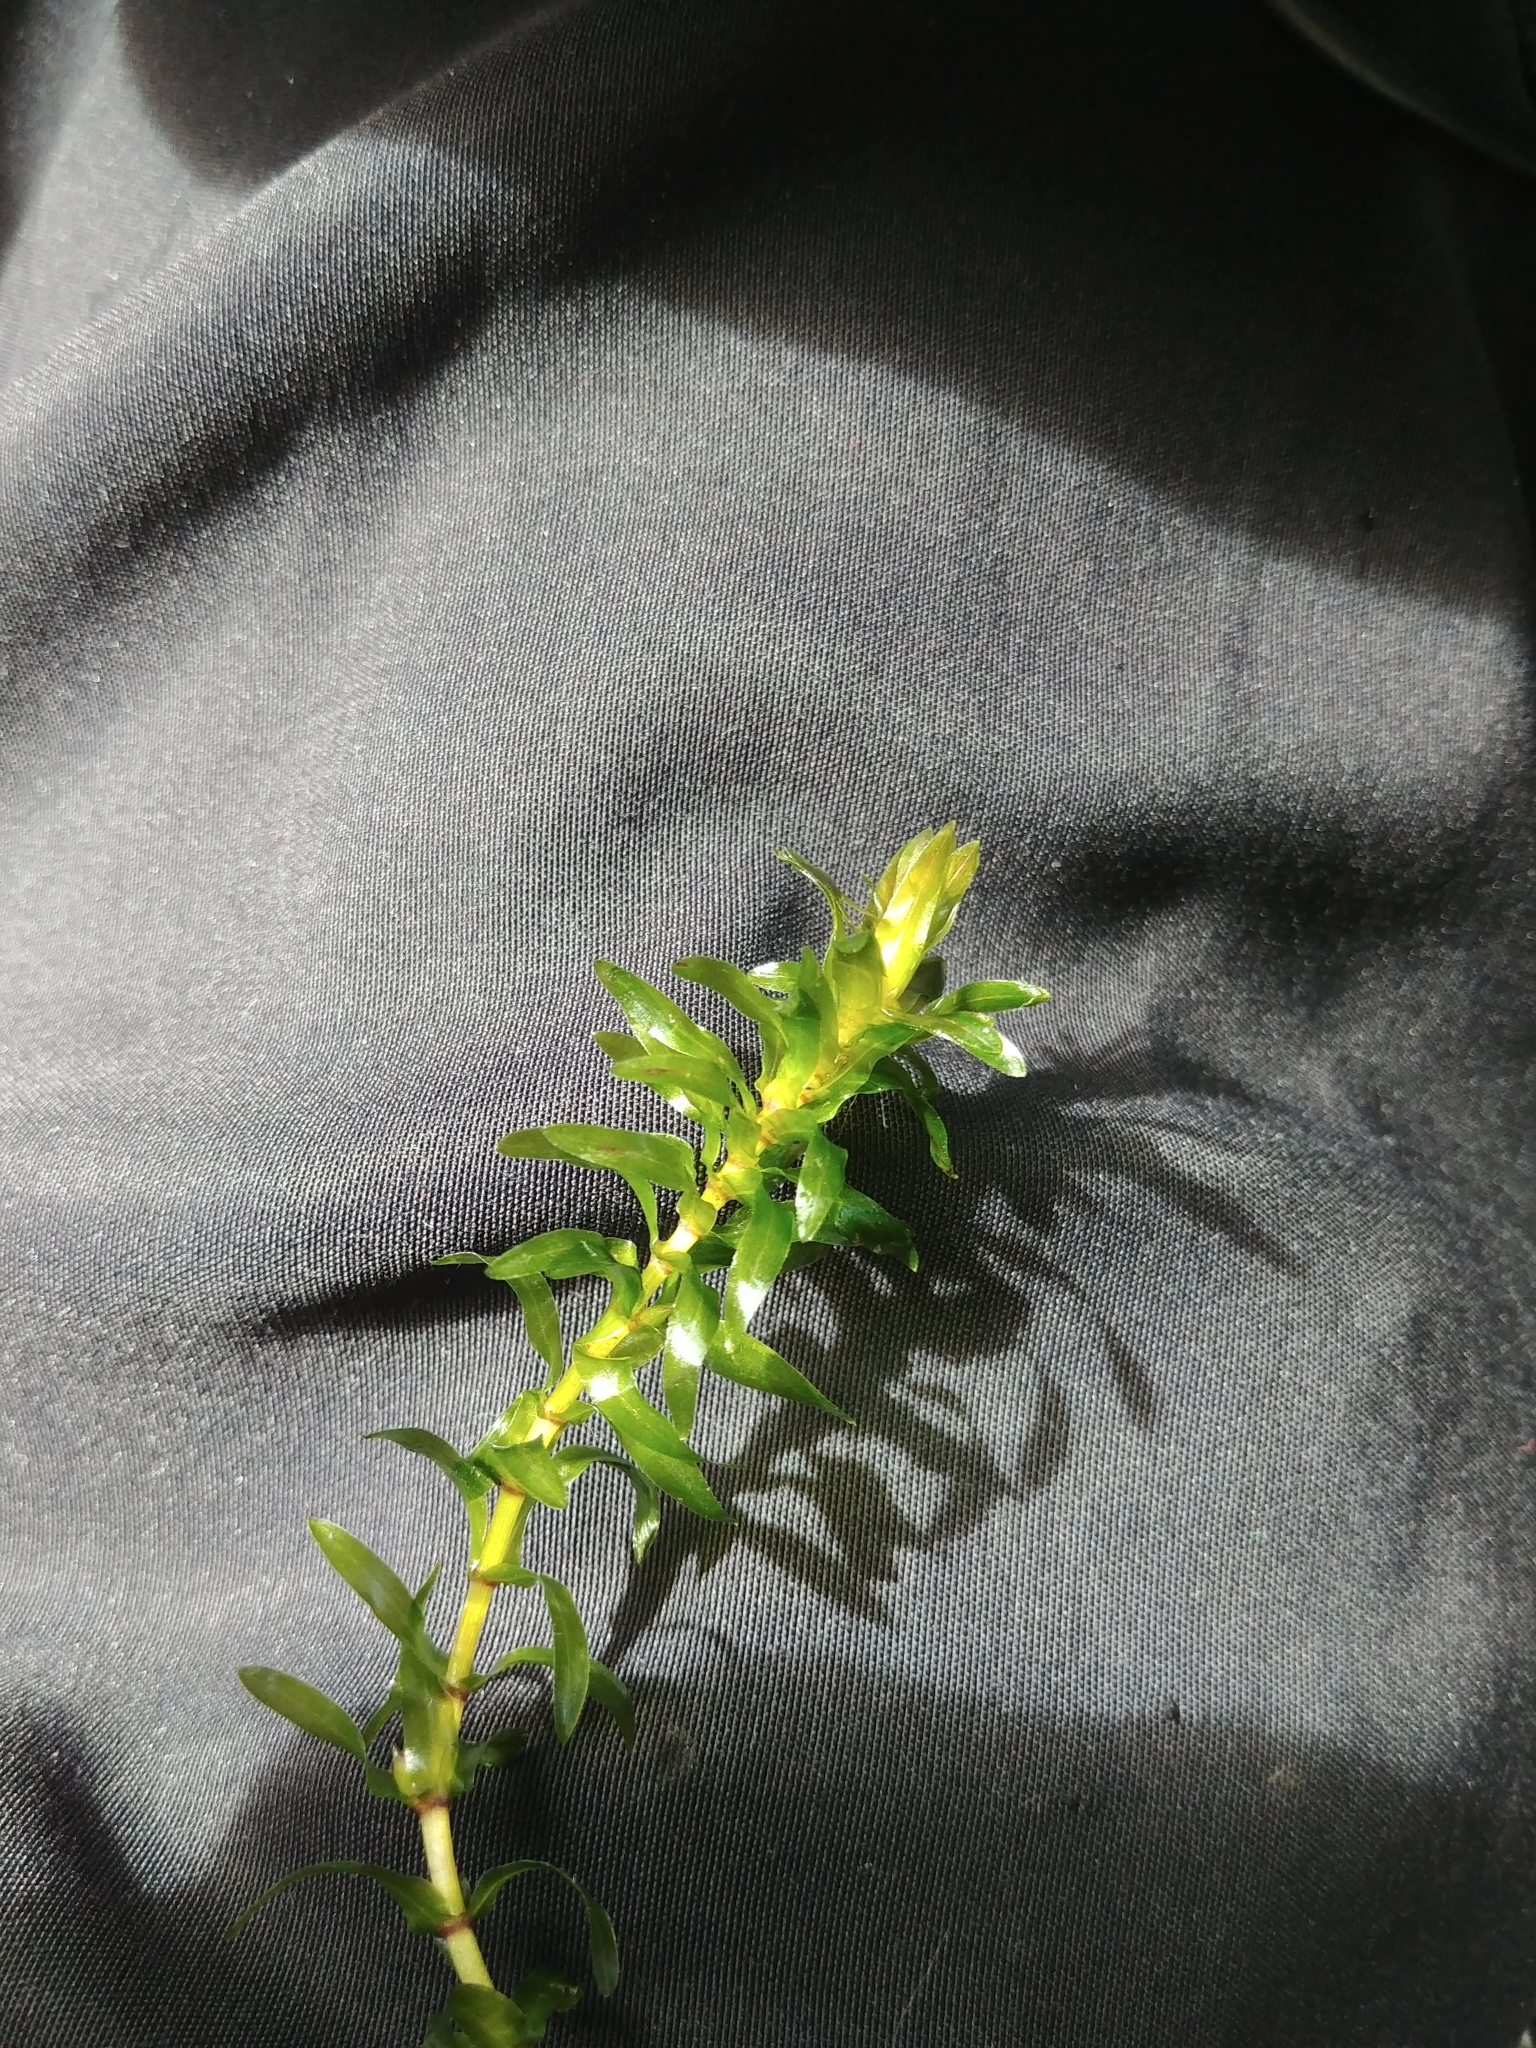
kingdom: Plantae
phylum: Tracheophyta
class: Liliopsida
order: Alismatales
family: Hydrocharitaceae
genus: Elodea
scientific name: Elodea canadensis
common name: Canadian waterweed
